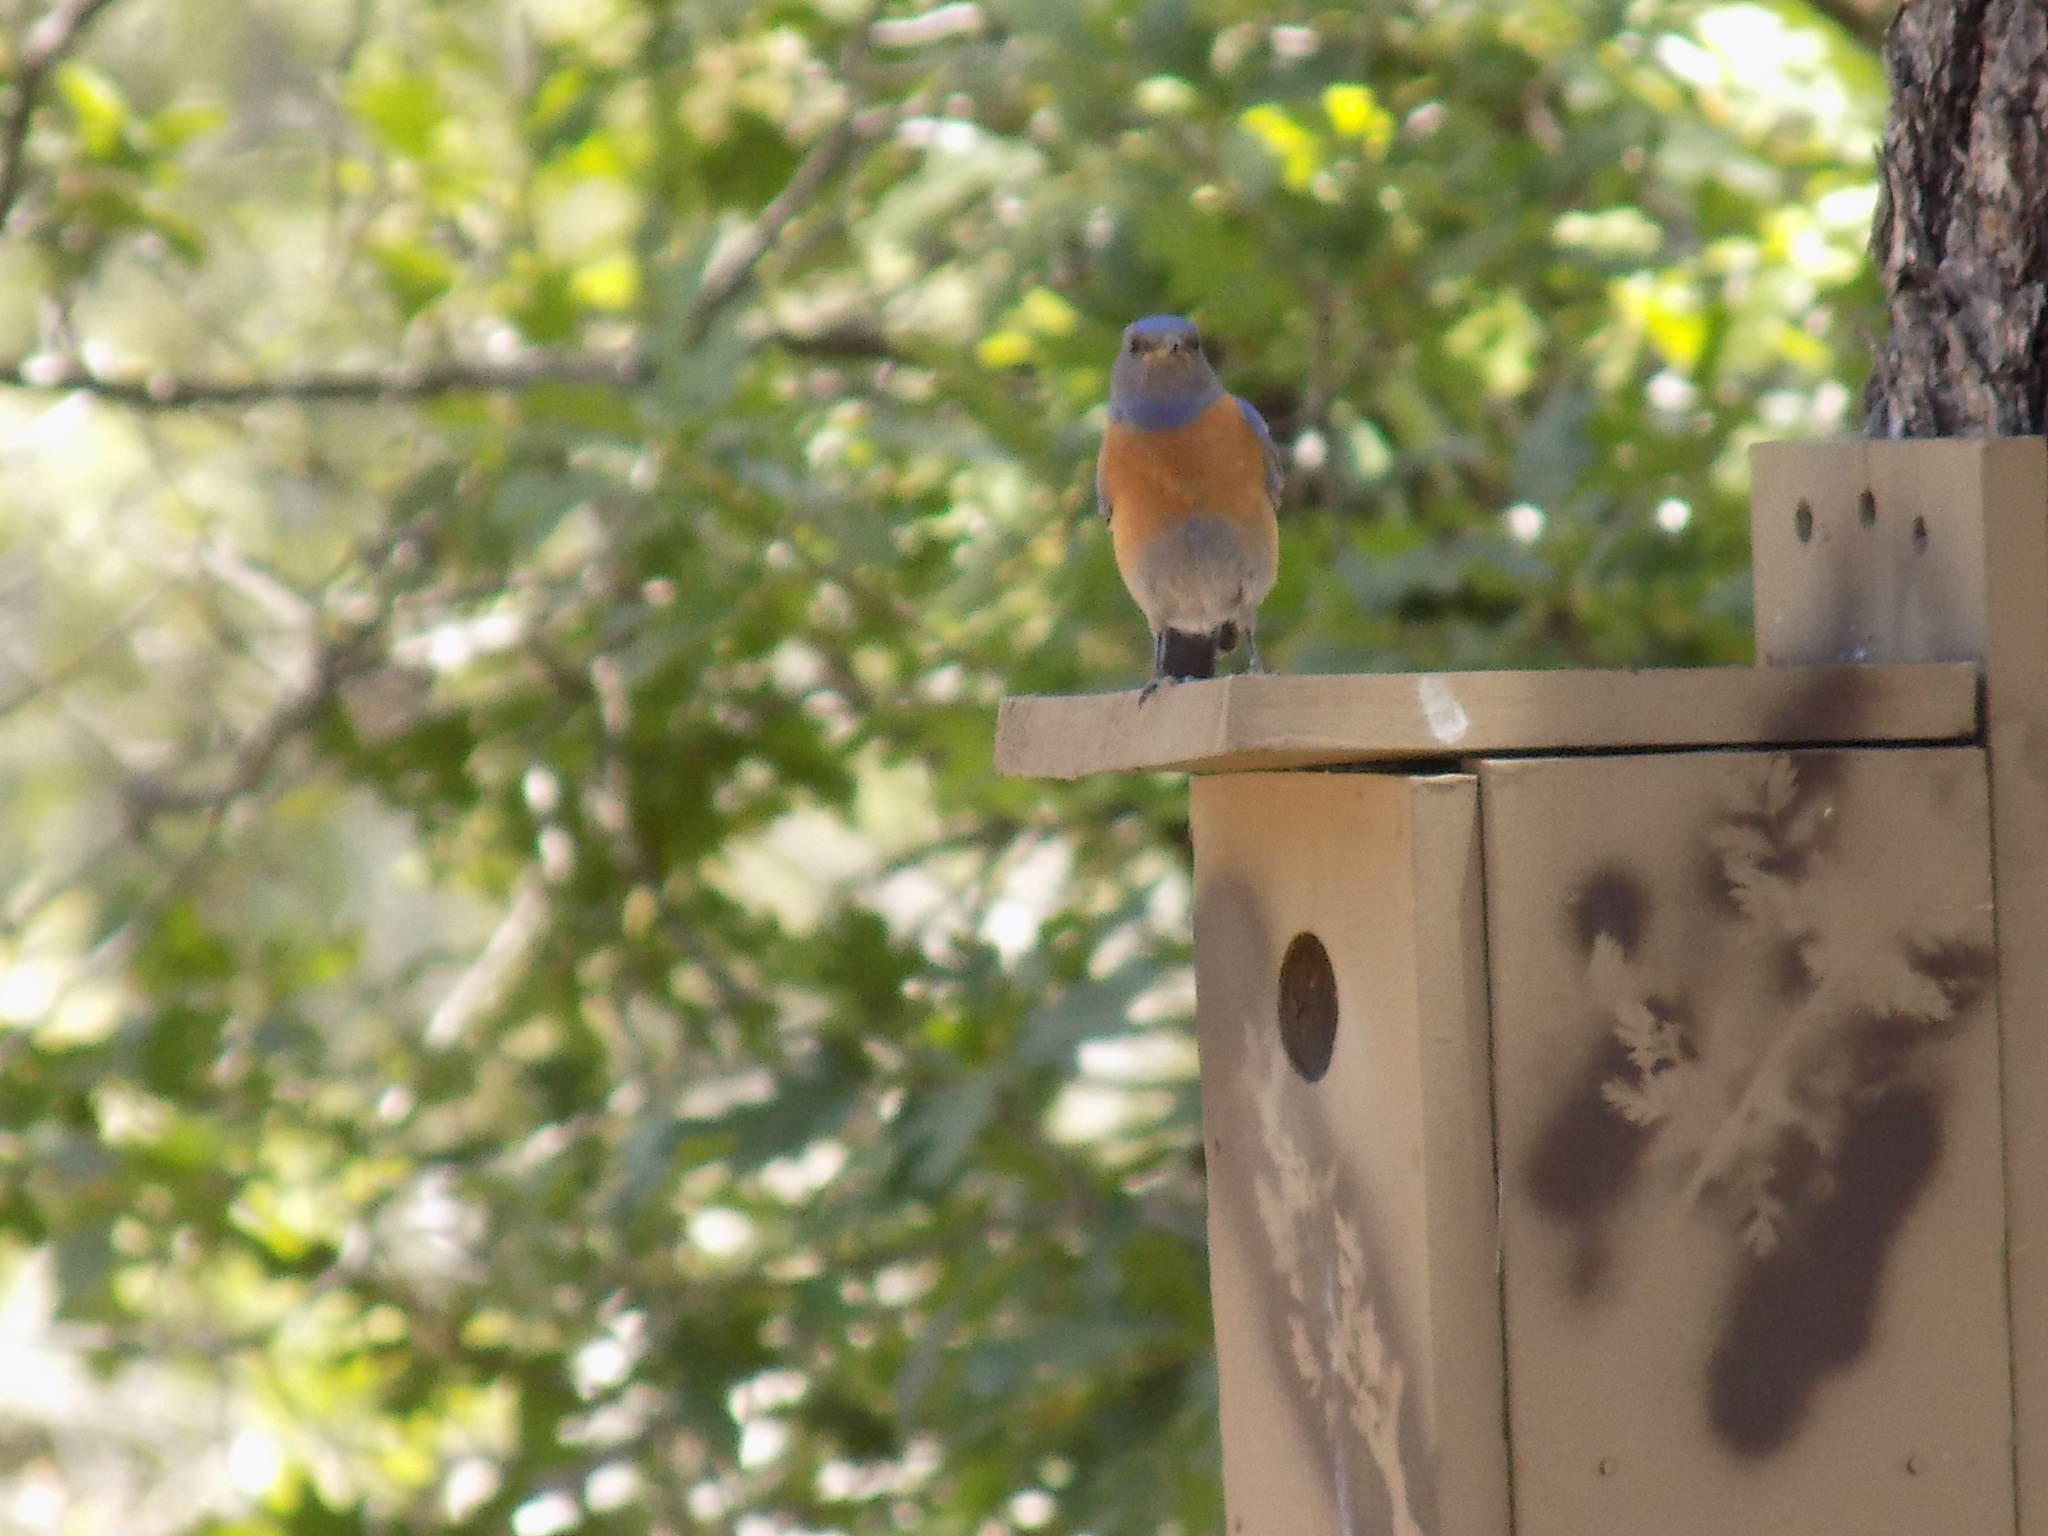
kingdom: Animalia
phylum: Chordata
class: Aves
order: Passeriformes
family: Turdidae
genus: Sialia
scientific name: Sialia mexicana
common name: Western bluebird
